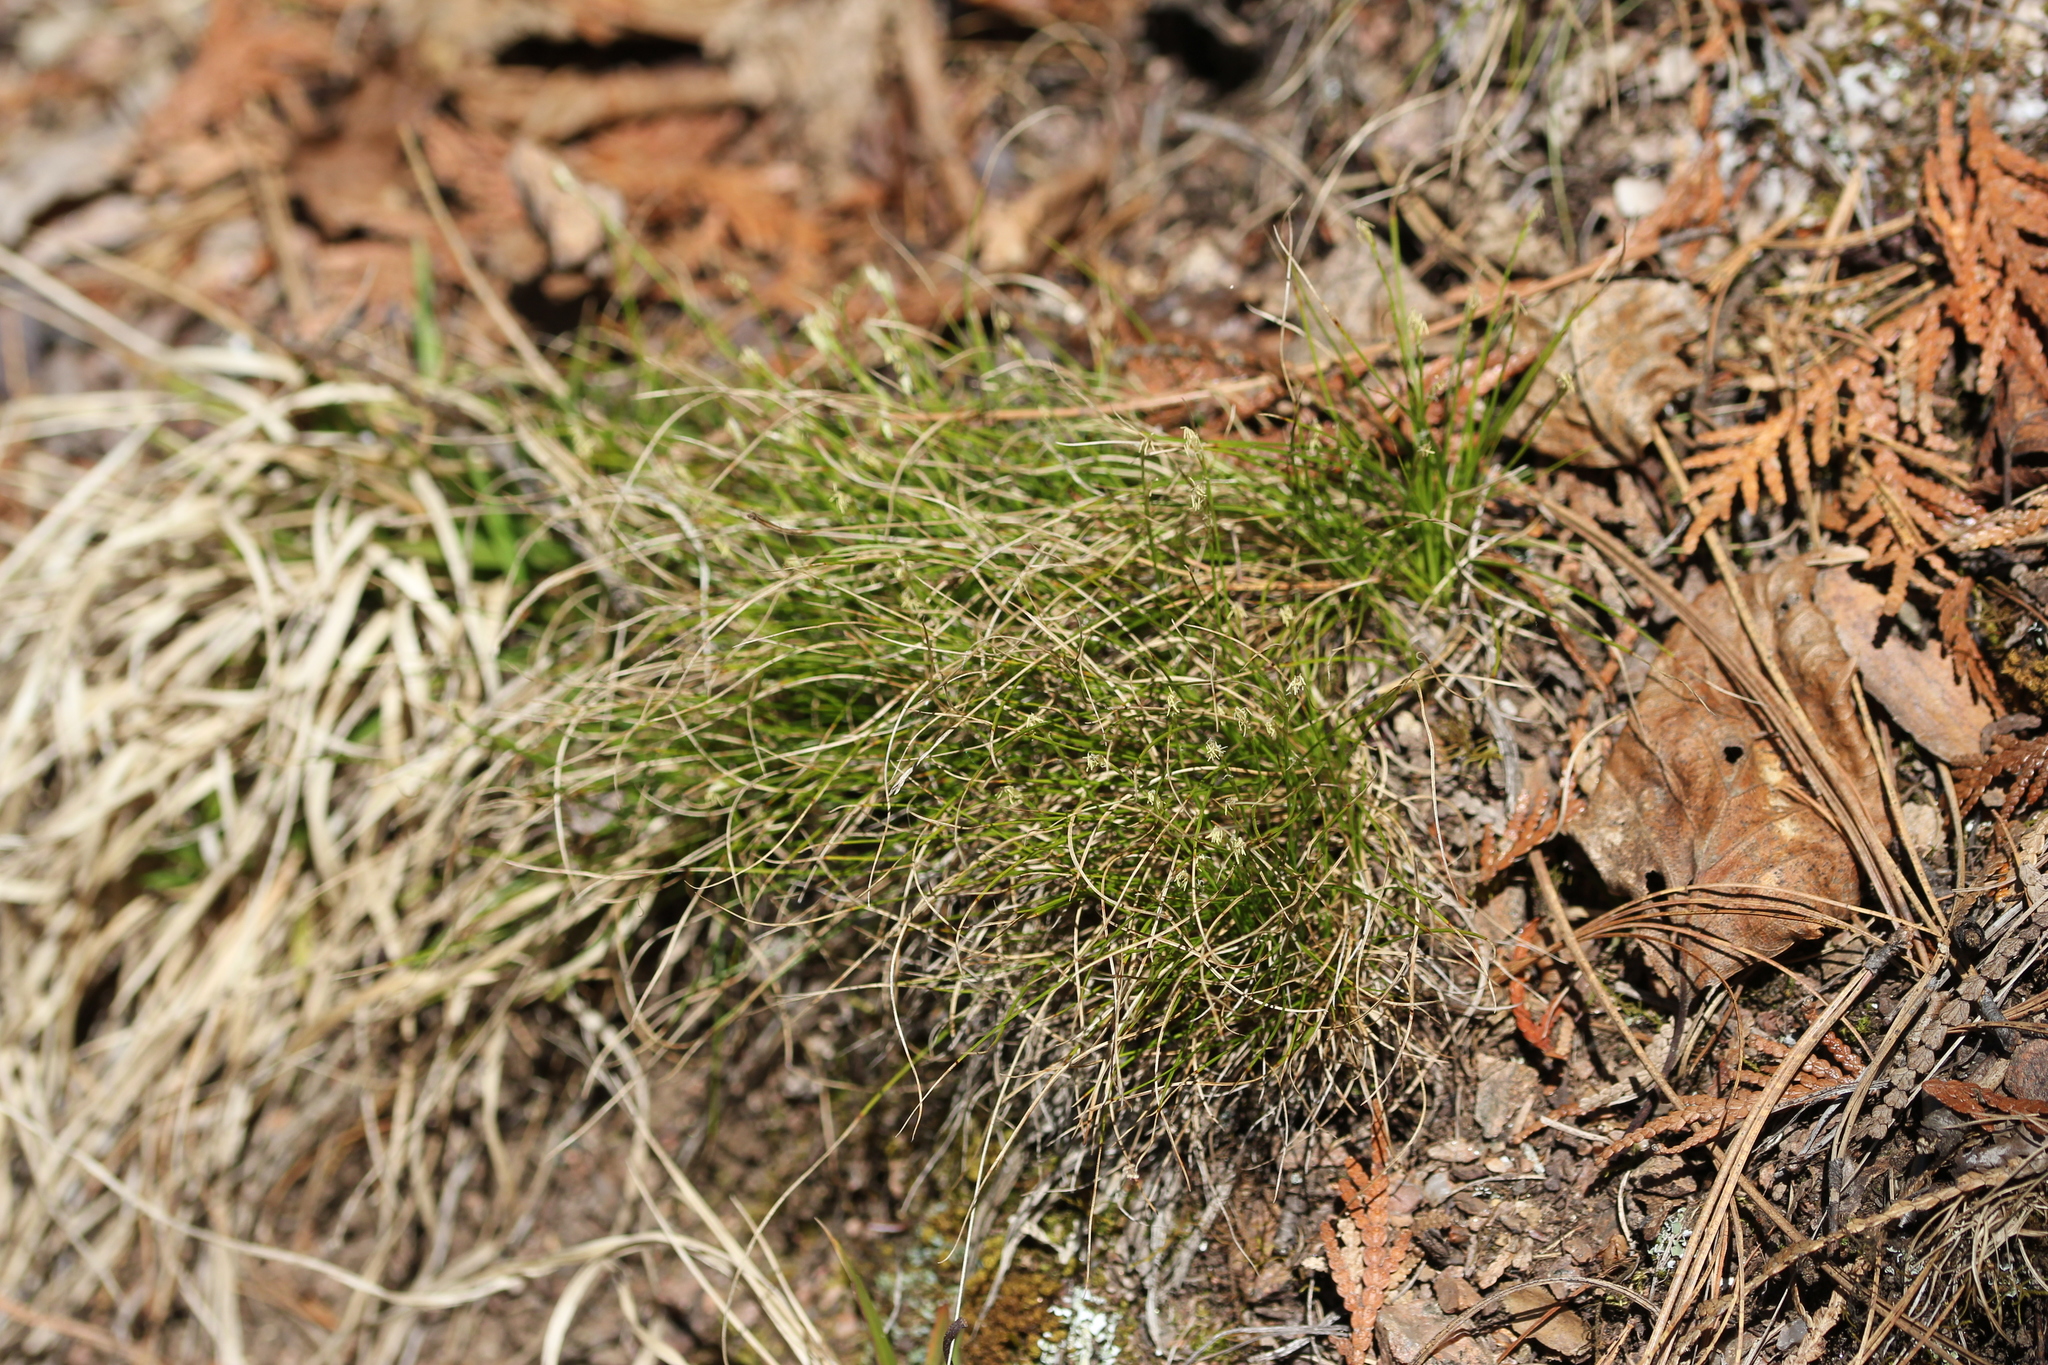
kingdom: Plantae
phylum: Tracheophyta
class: Liliopsida
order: Poales
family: Cyperaceae
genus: Carex
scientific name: Carex eburnea
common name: Bristle-leaved sedge
